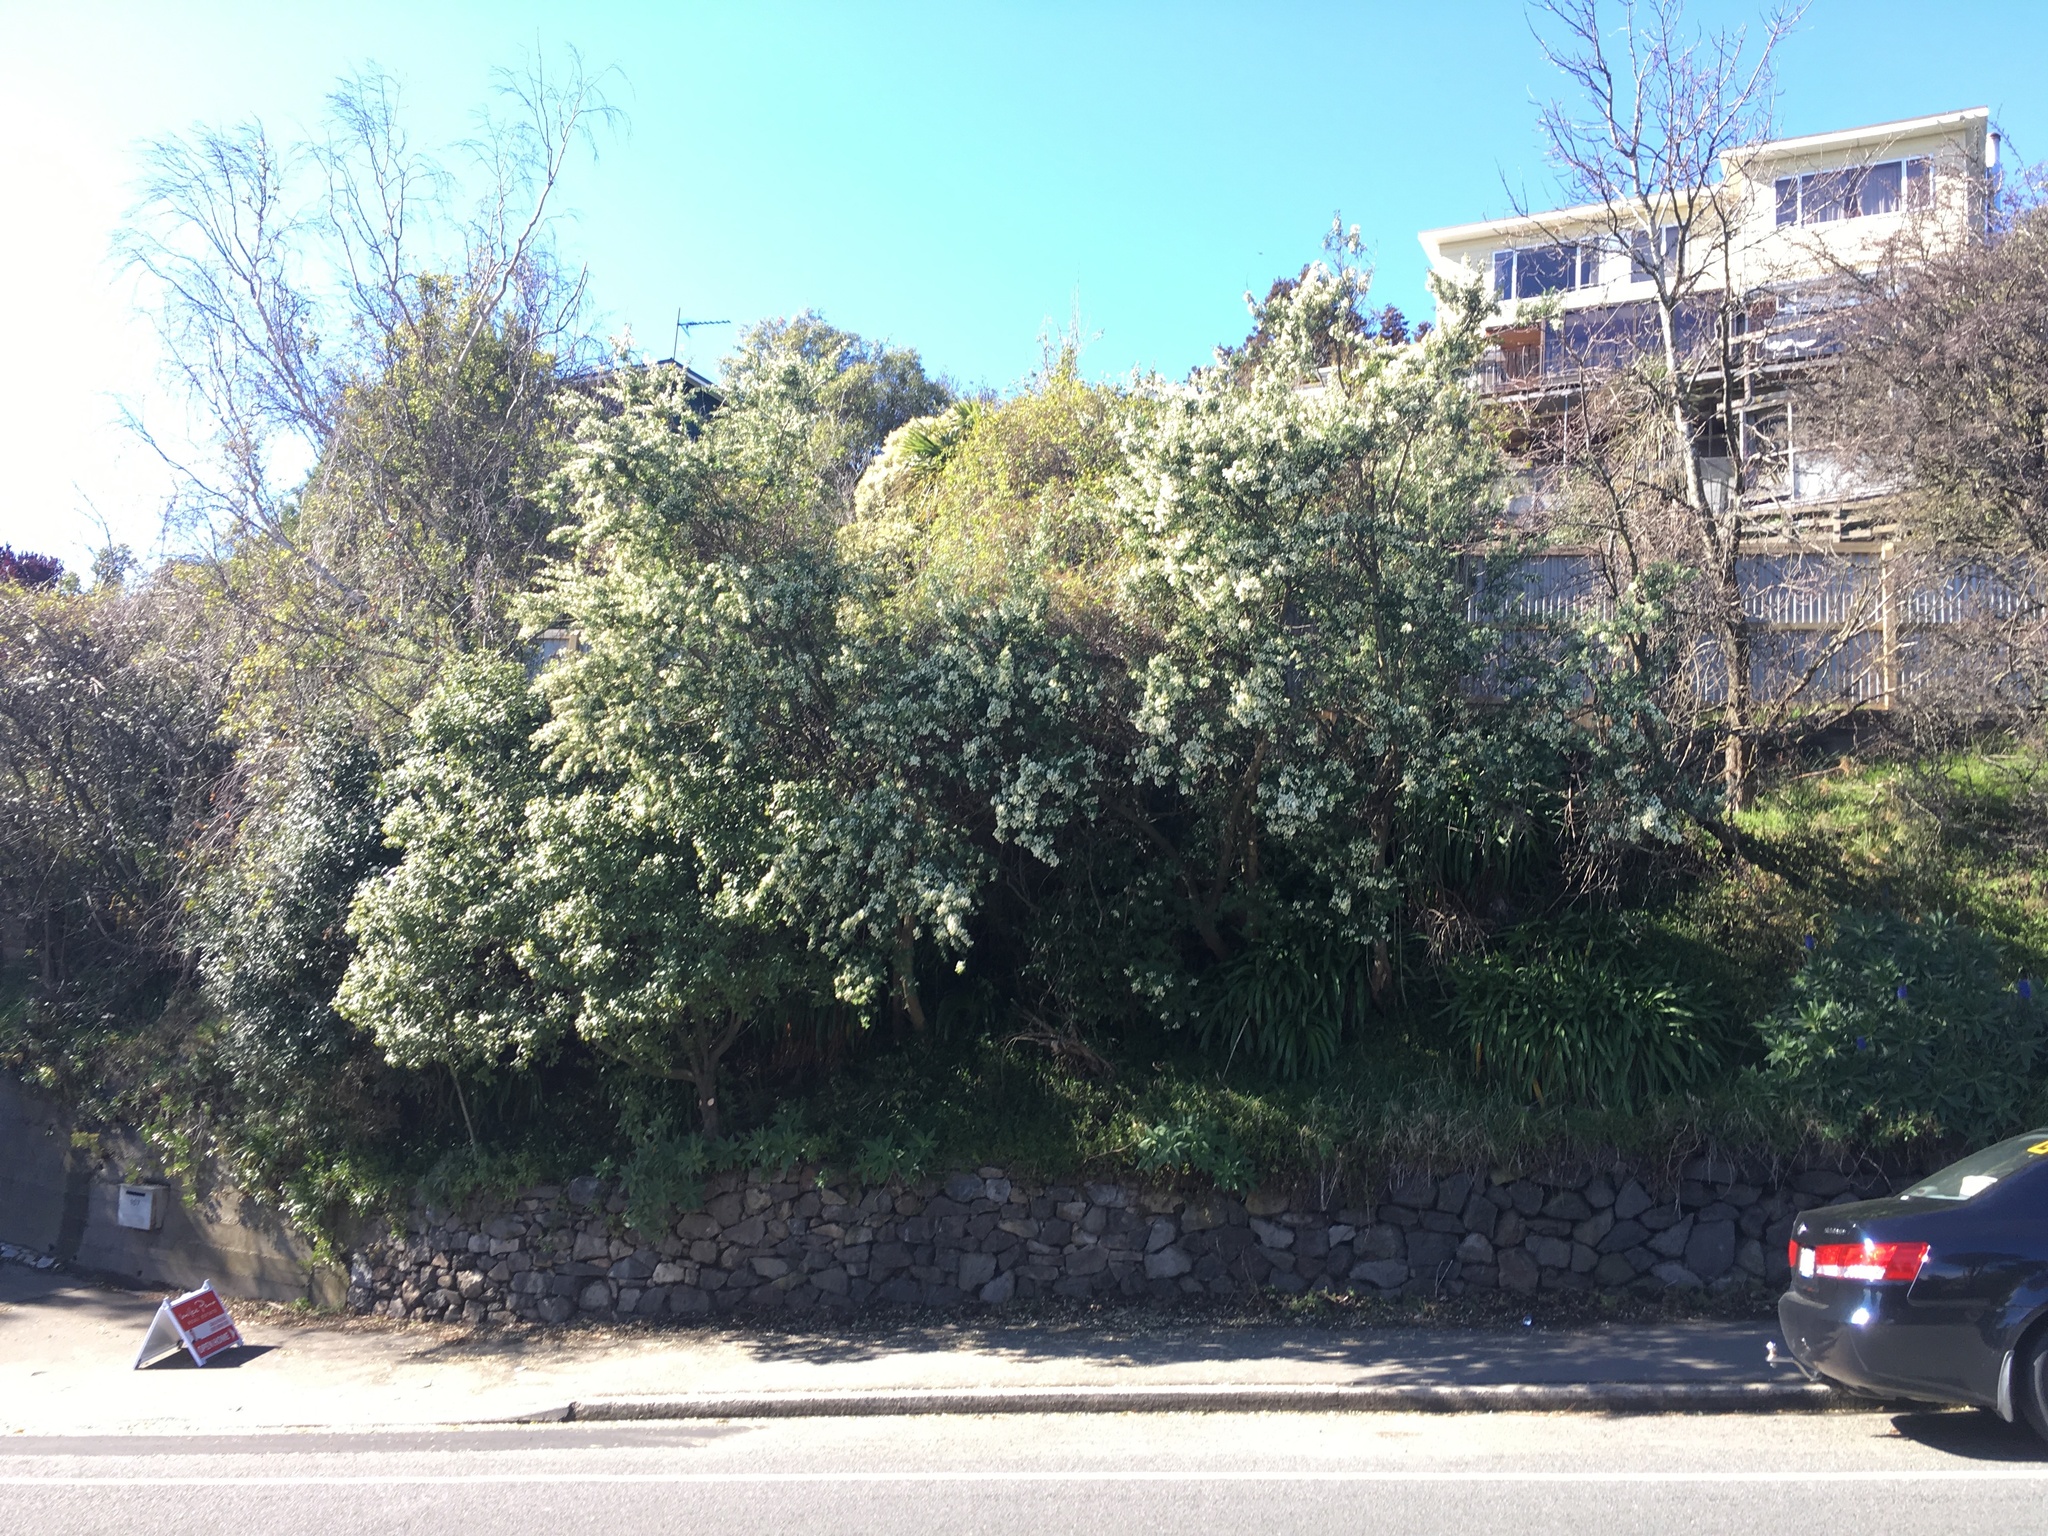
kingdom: Plantae
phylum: Tracheophyta
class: Magnoliopsida
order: Fabales
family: Fabaceae
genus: Chamaecytisus
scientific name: Chamaecytisus prolifer
